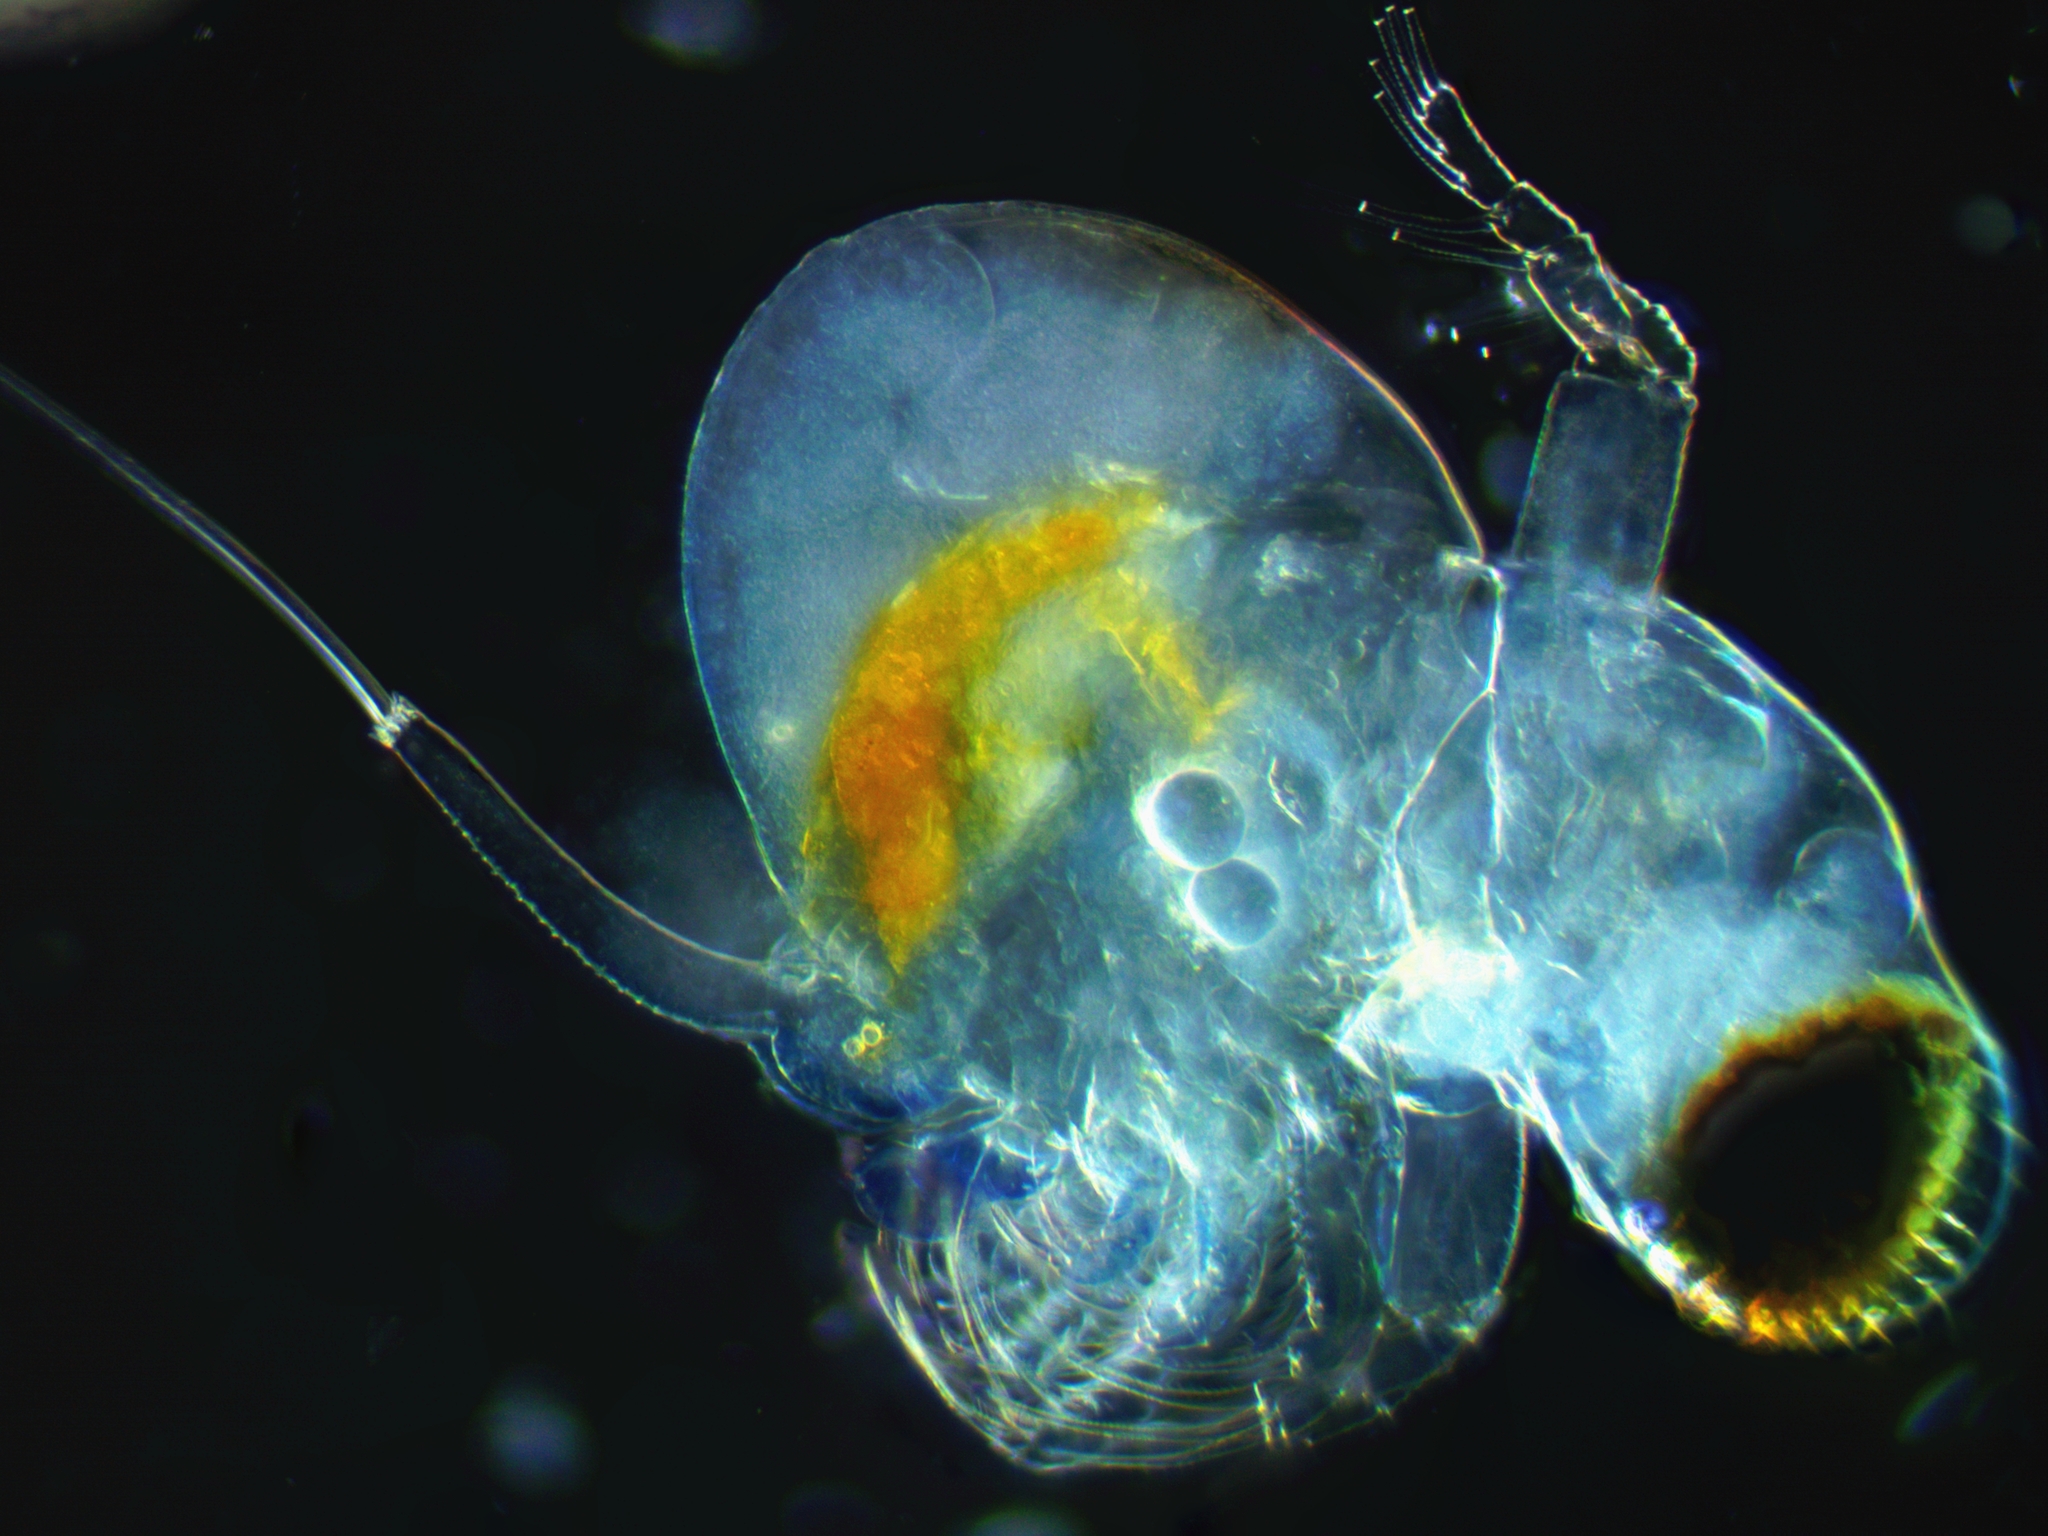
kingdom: Animalia
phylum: Arthropoda
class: Branchiopoda
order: Diplostraca
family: Polyphemidae
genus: Polyphemus
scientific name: Polyphemus pediculus
